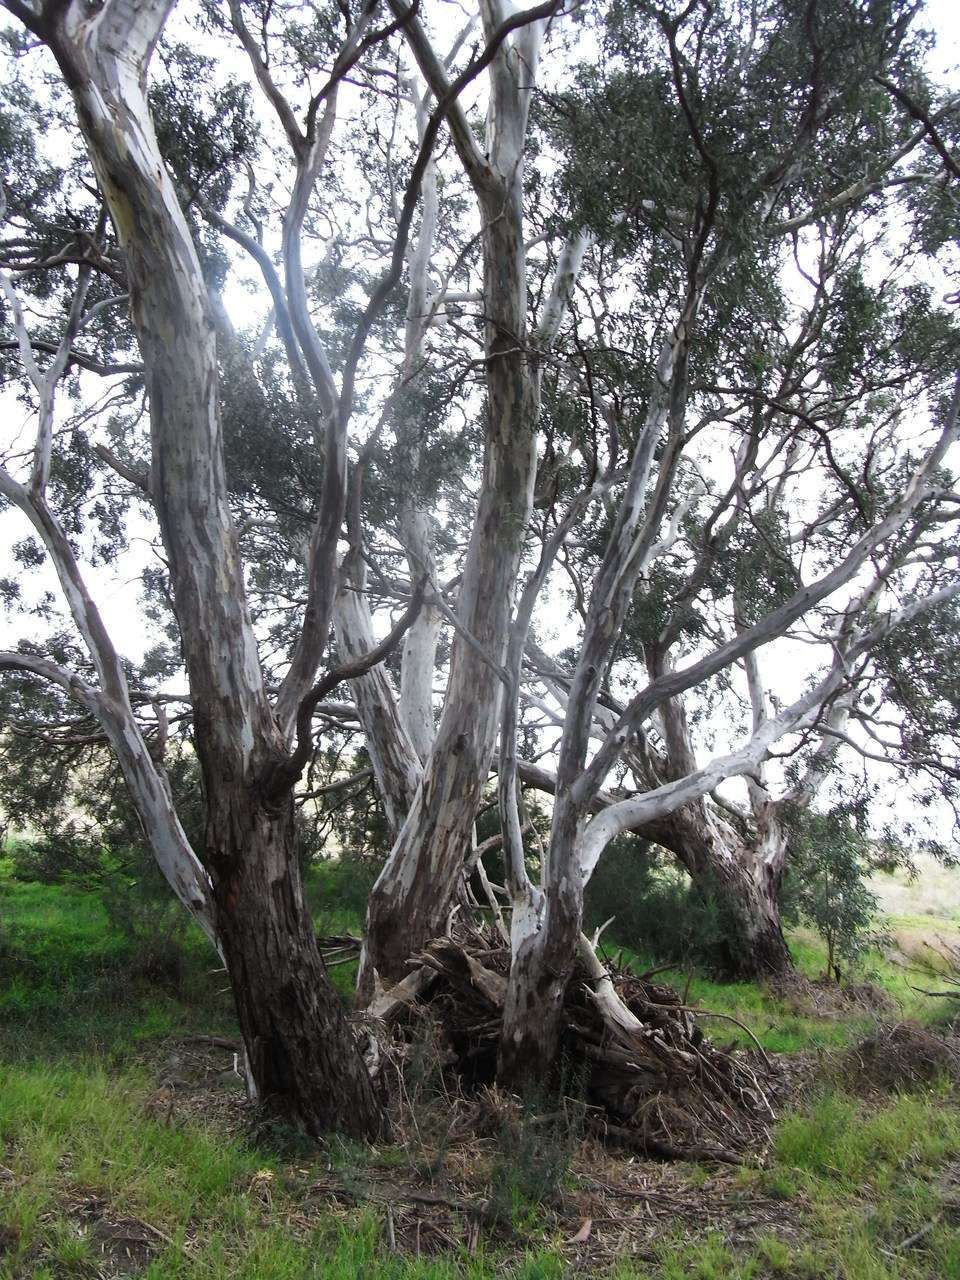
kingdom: Plantae
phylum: Tracheophyta
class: Magnoliopsida
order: Myrtales
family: Myrtaceae
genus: Eucalyptus
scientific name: Eucalyptus camaldulensis
